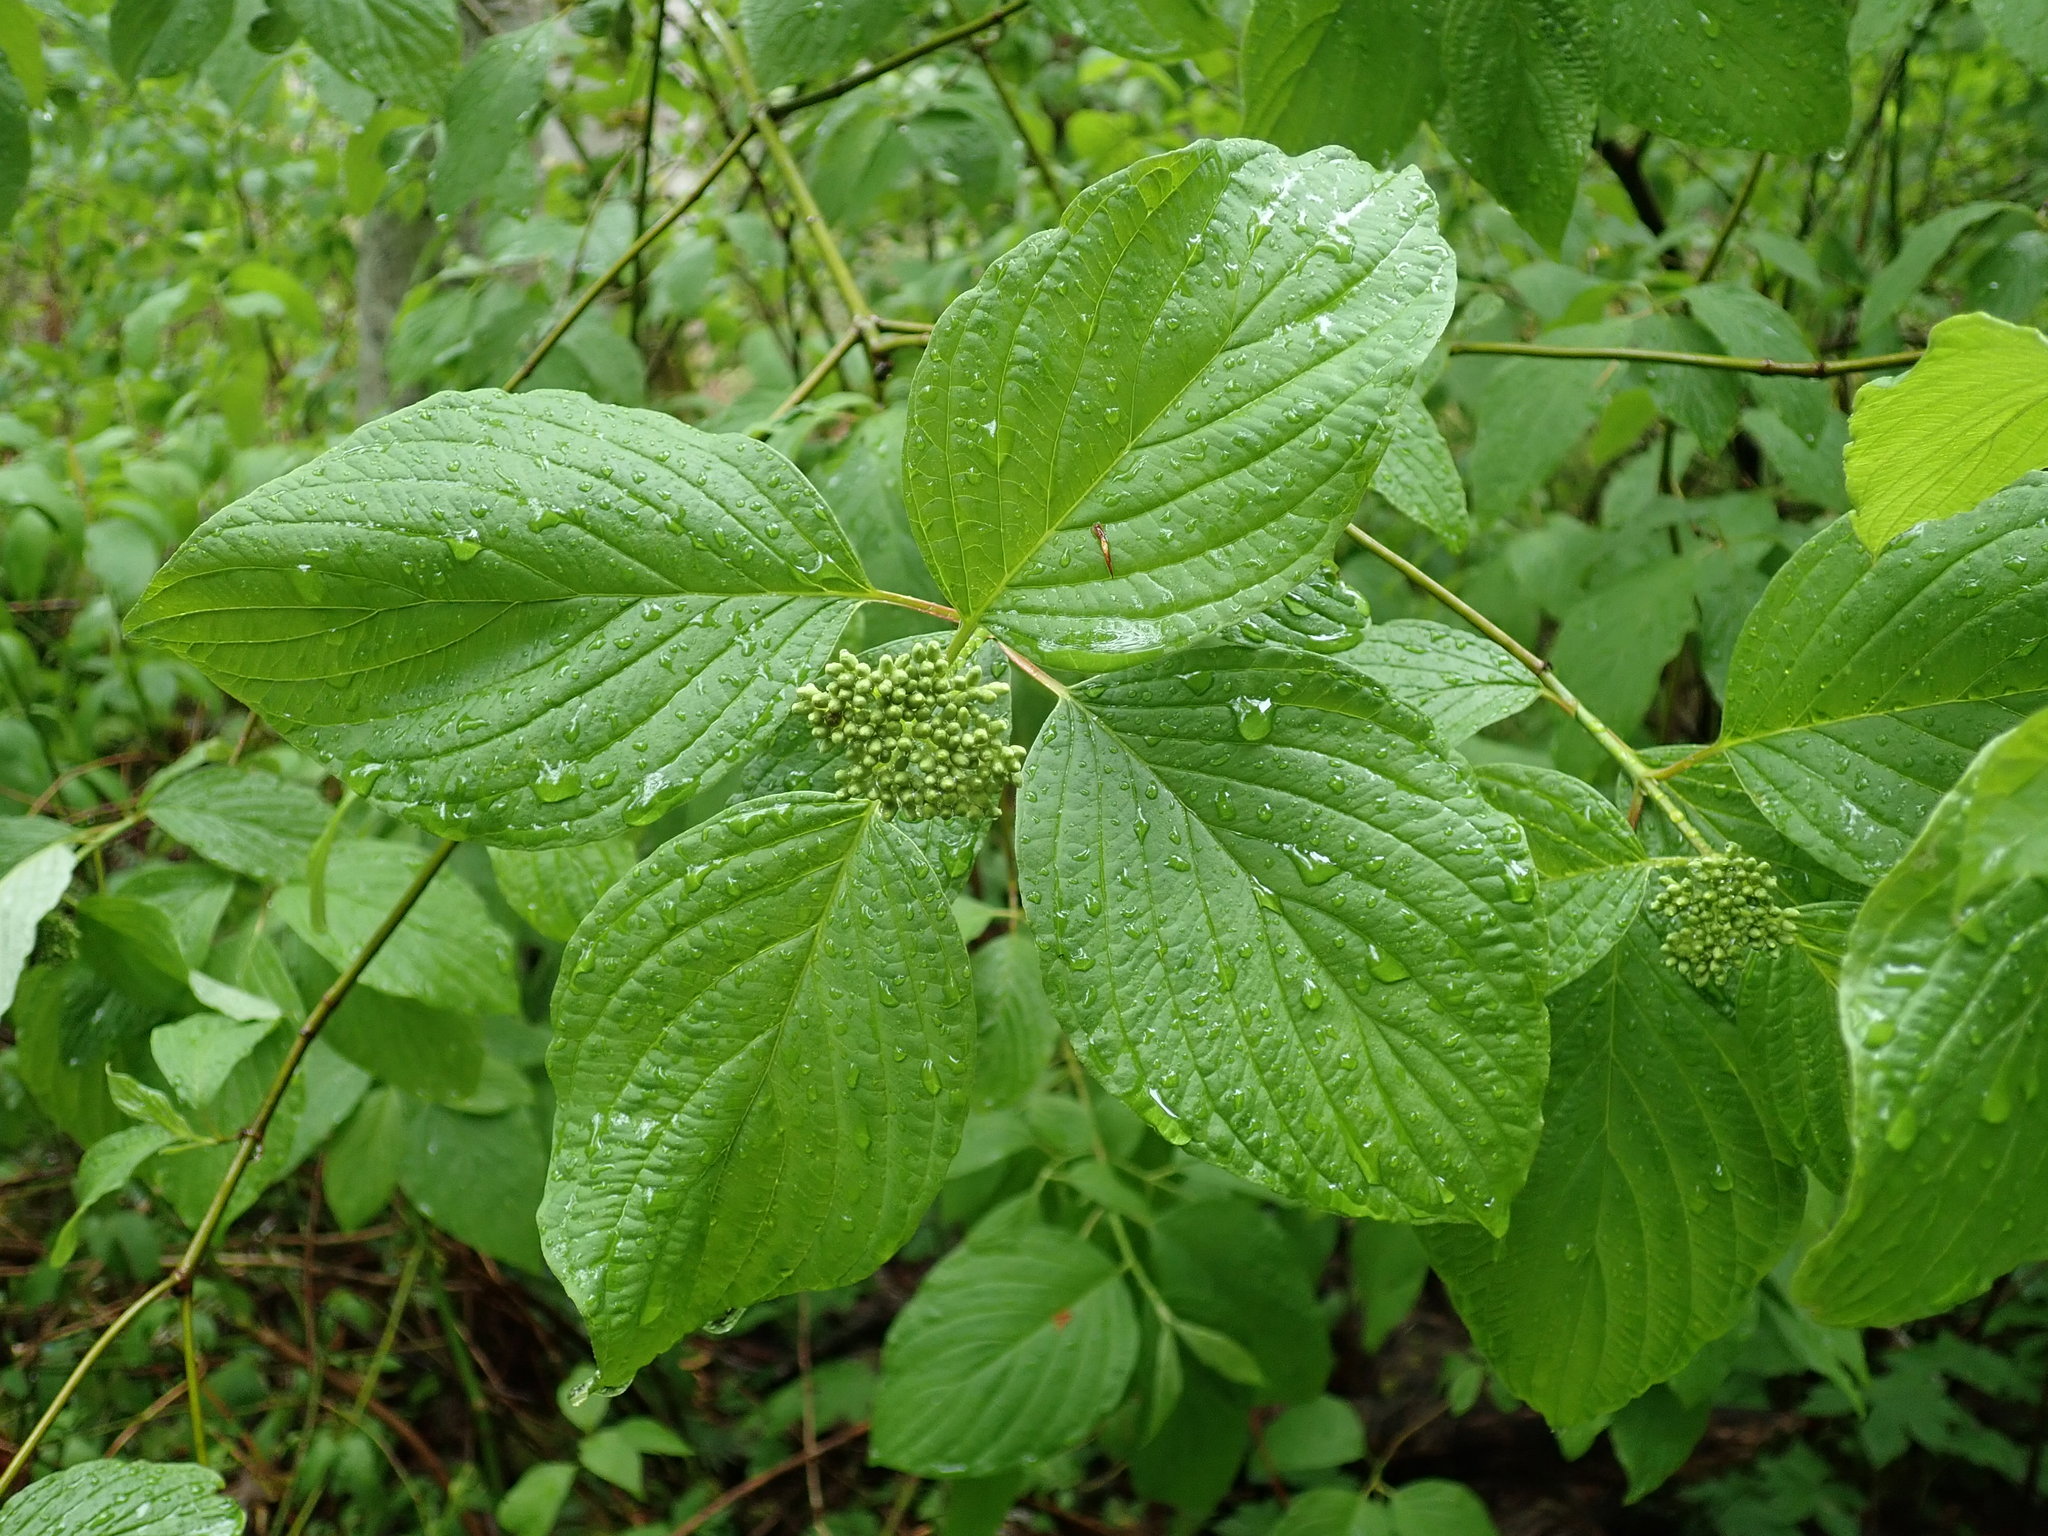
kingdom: Plantae
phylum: Tracheophyta
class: Magnoliopsida
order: Cornales
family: Cornaceae
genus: Cornus
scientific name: Cornus sericea
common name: Red-osier dogwood
